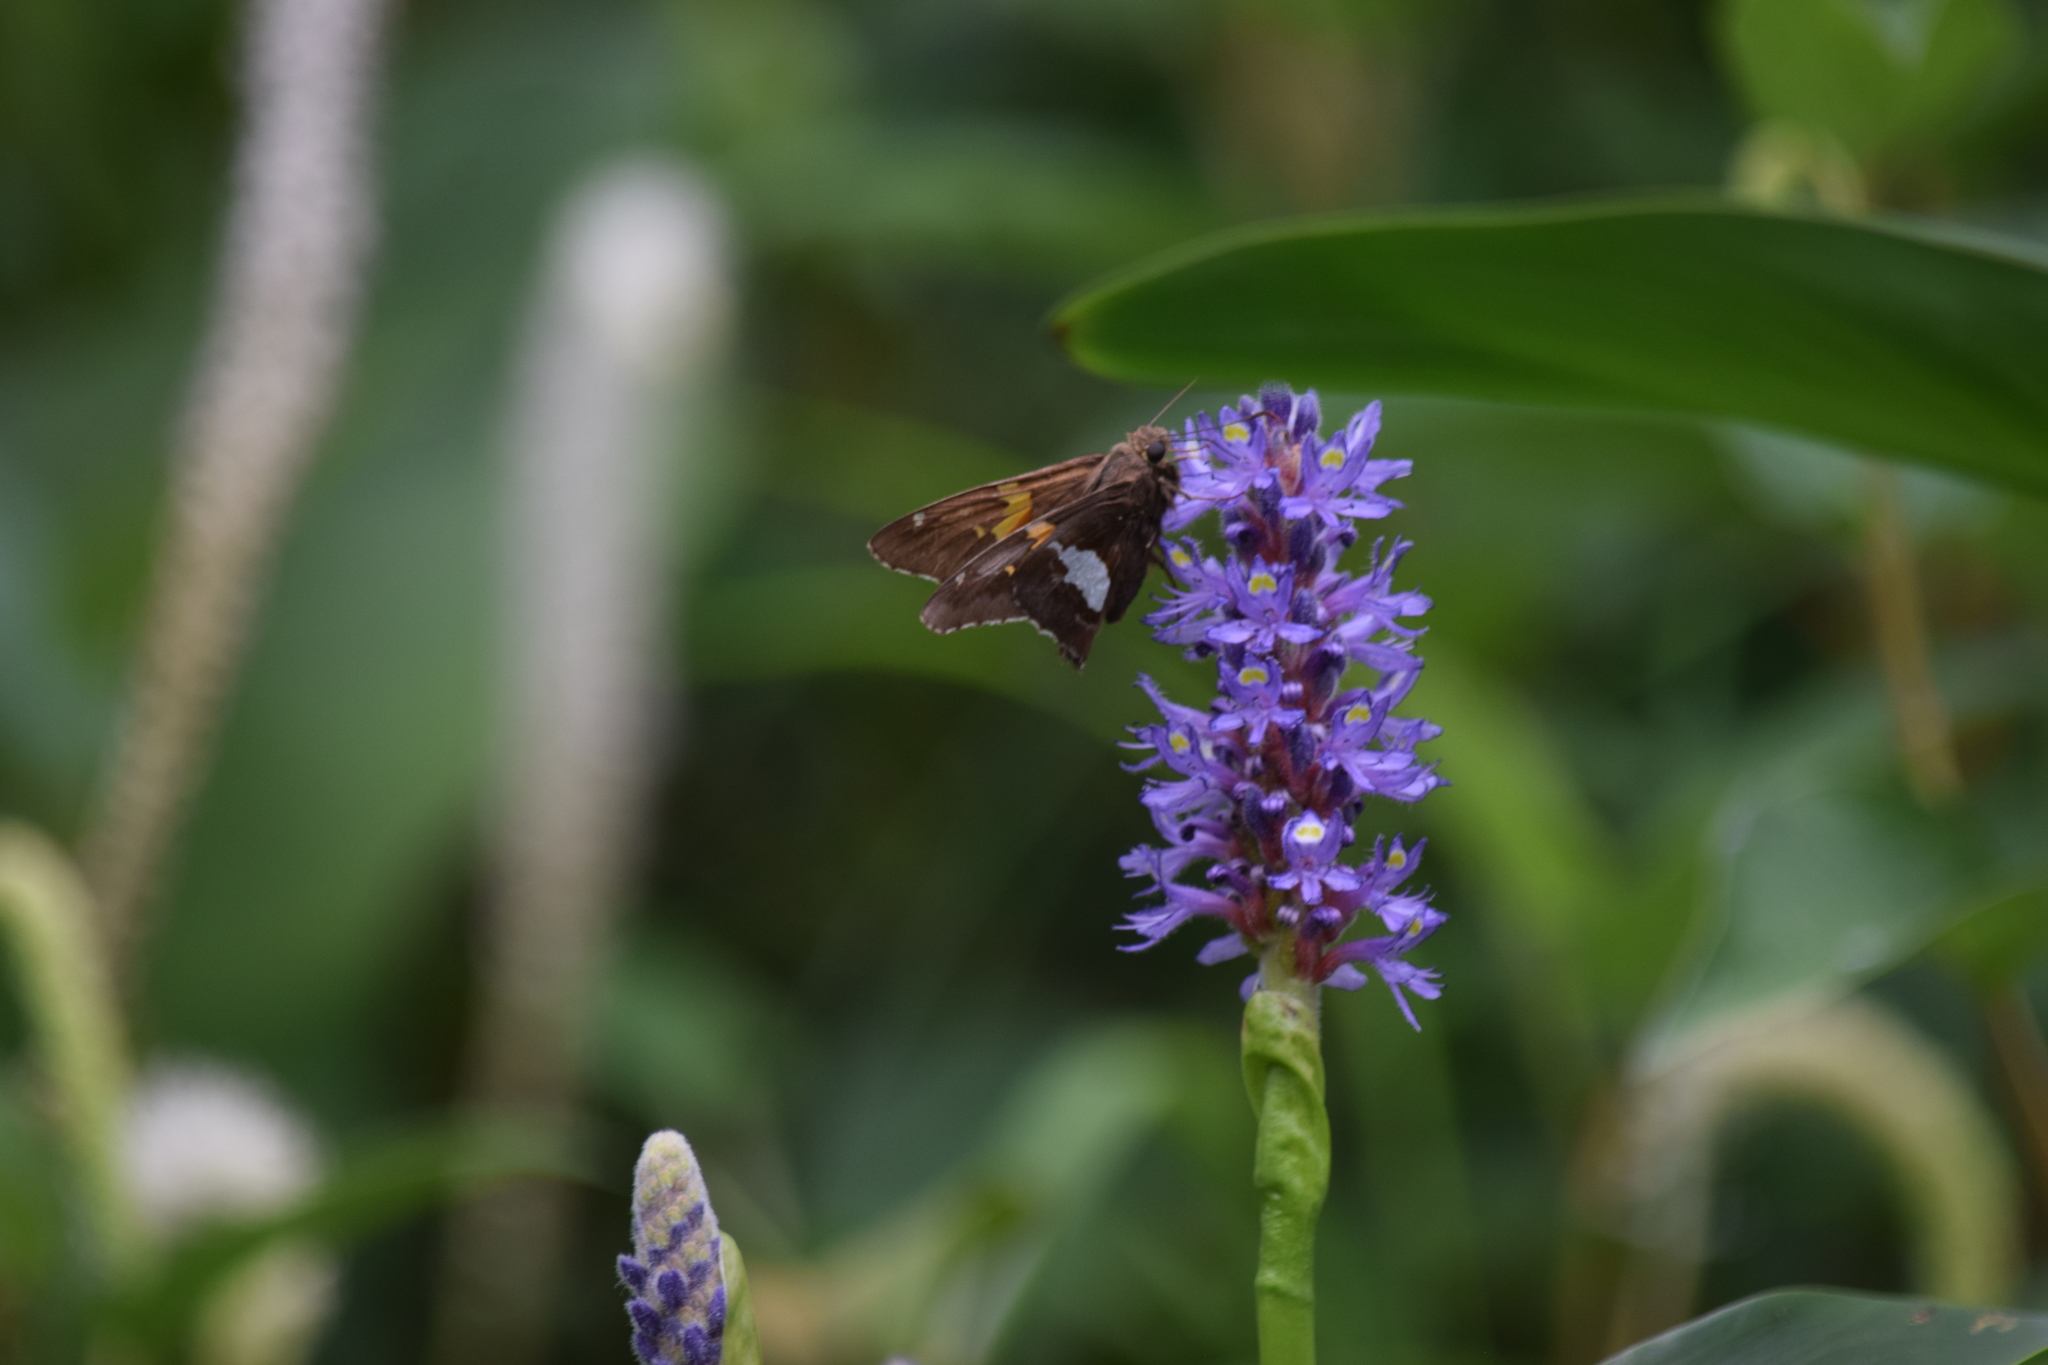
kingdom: Animalia
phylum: Arthropoda
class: Insecta
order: Lepidoptera
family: Hesperiidae
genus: Epargyreus
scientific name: Epargyreus clarus
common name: Silver-spotted skipper
